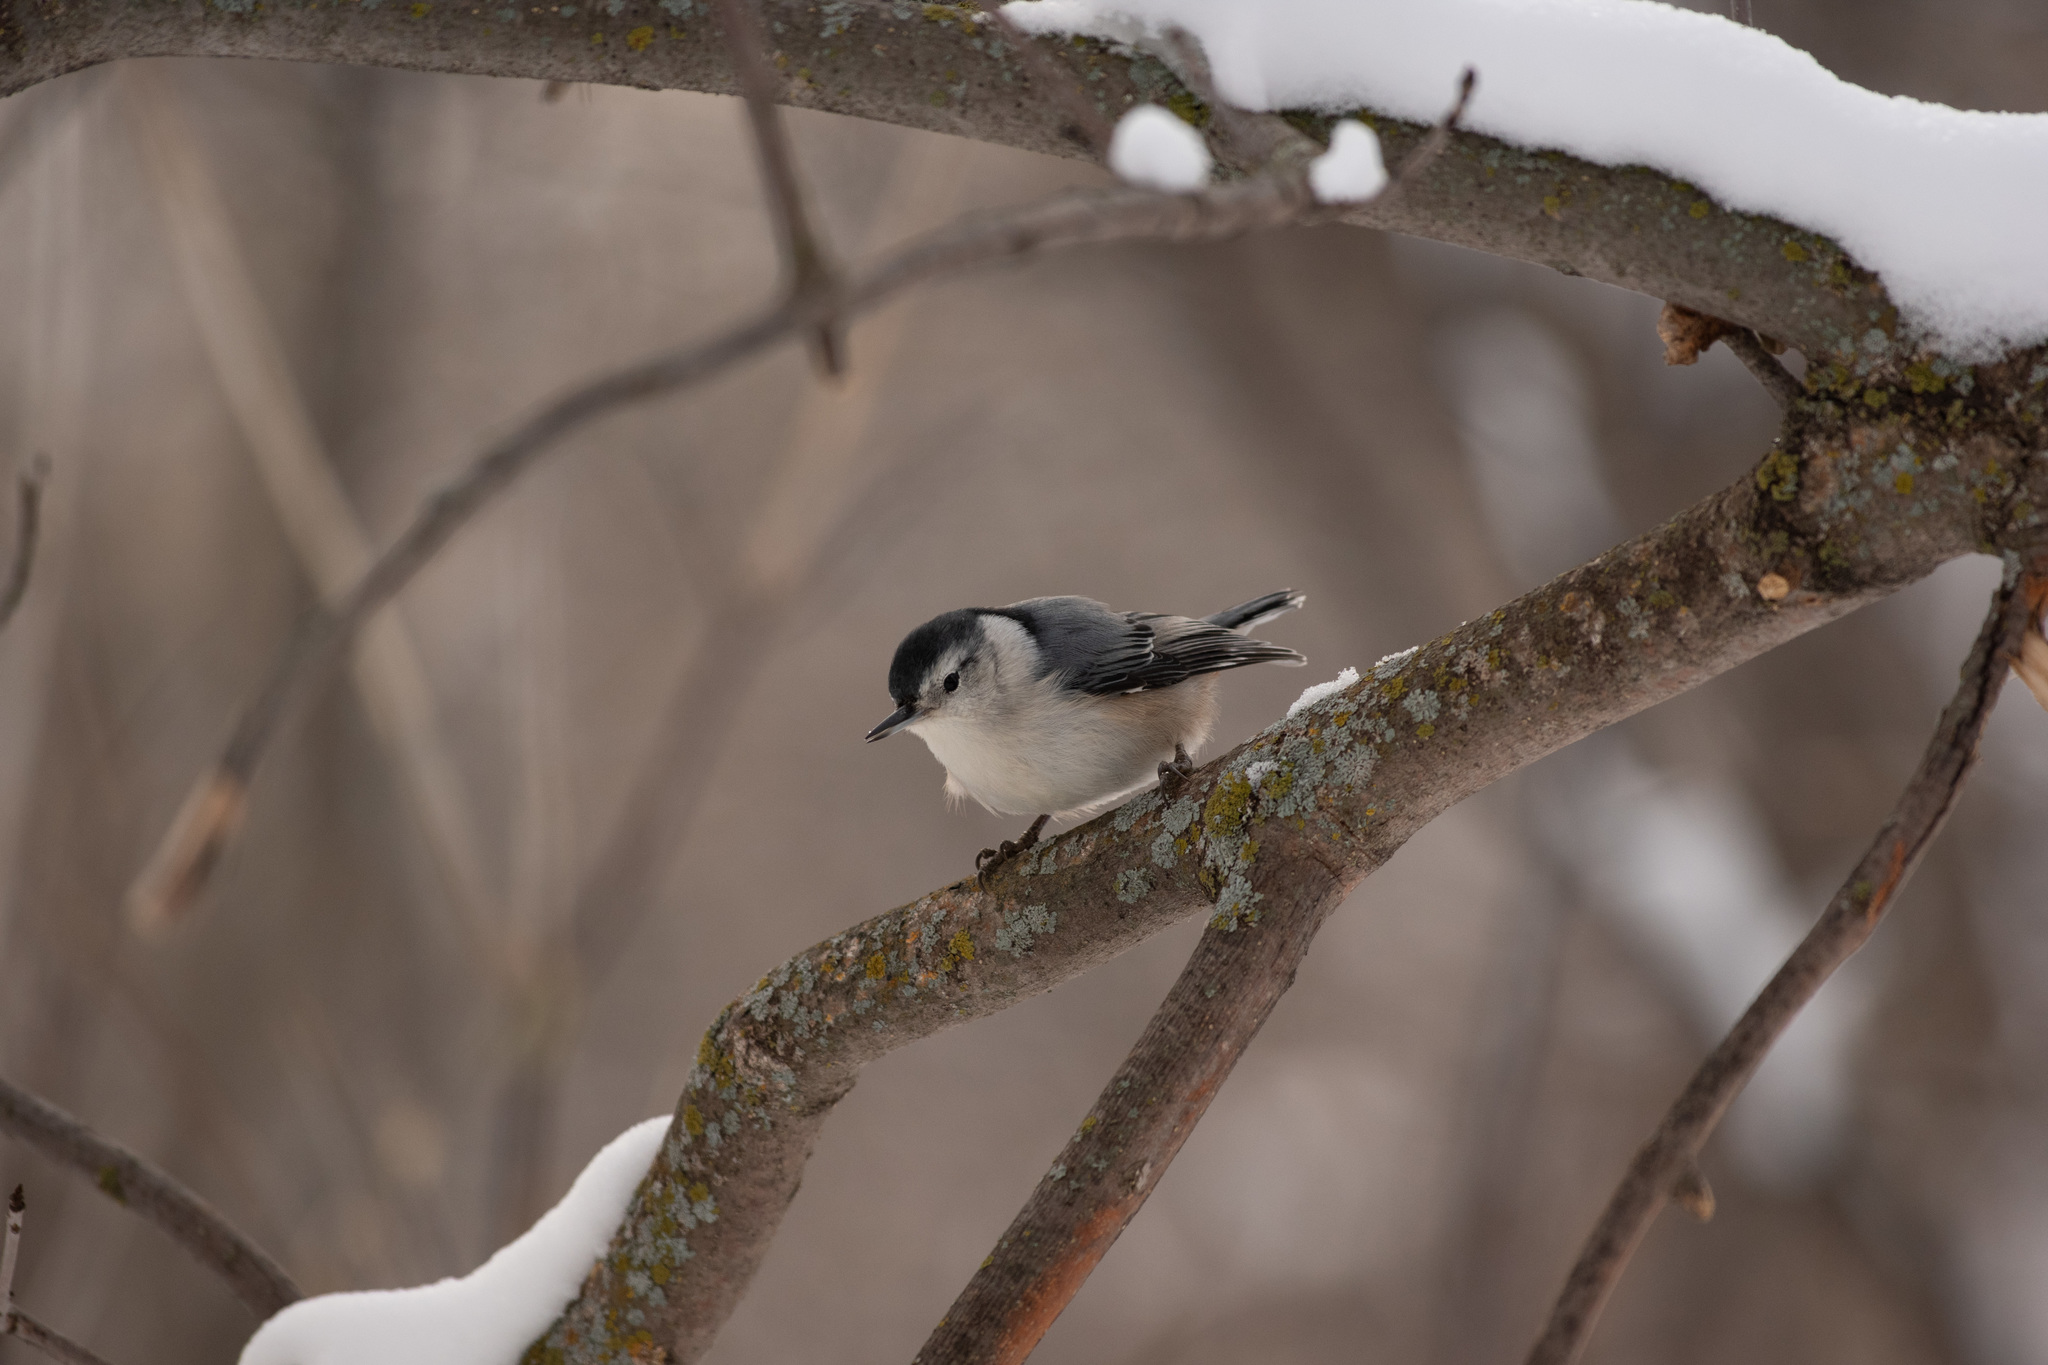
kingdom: Animalia
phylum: Chordata
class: Aves
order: Passeriformes
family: Sittidae
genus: Sitta
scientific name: Sitta carolinensis
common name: White-breasted nuthatch
